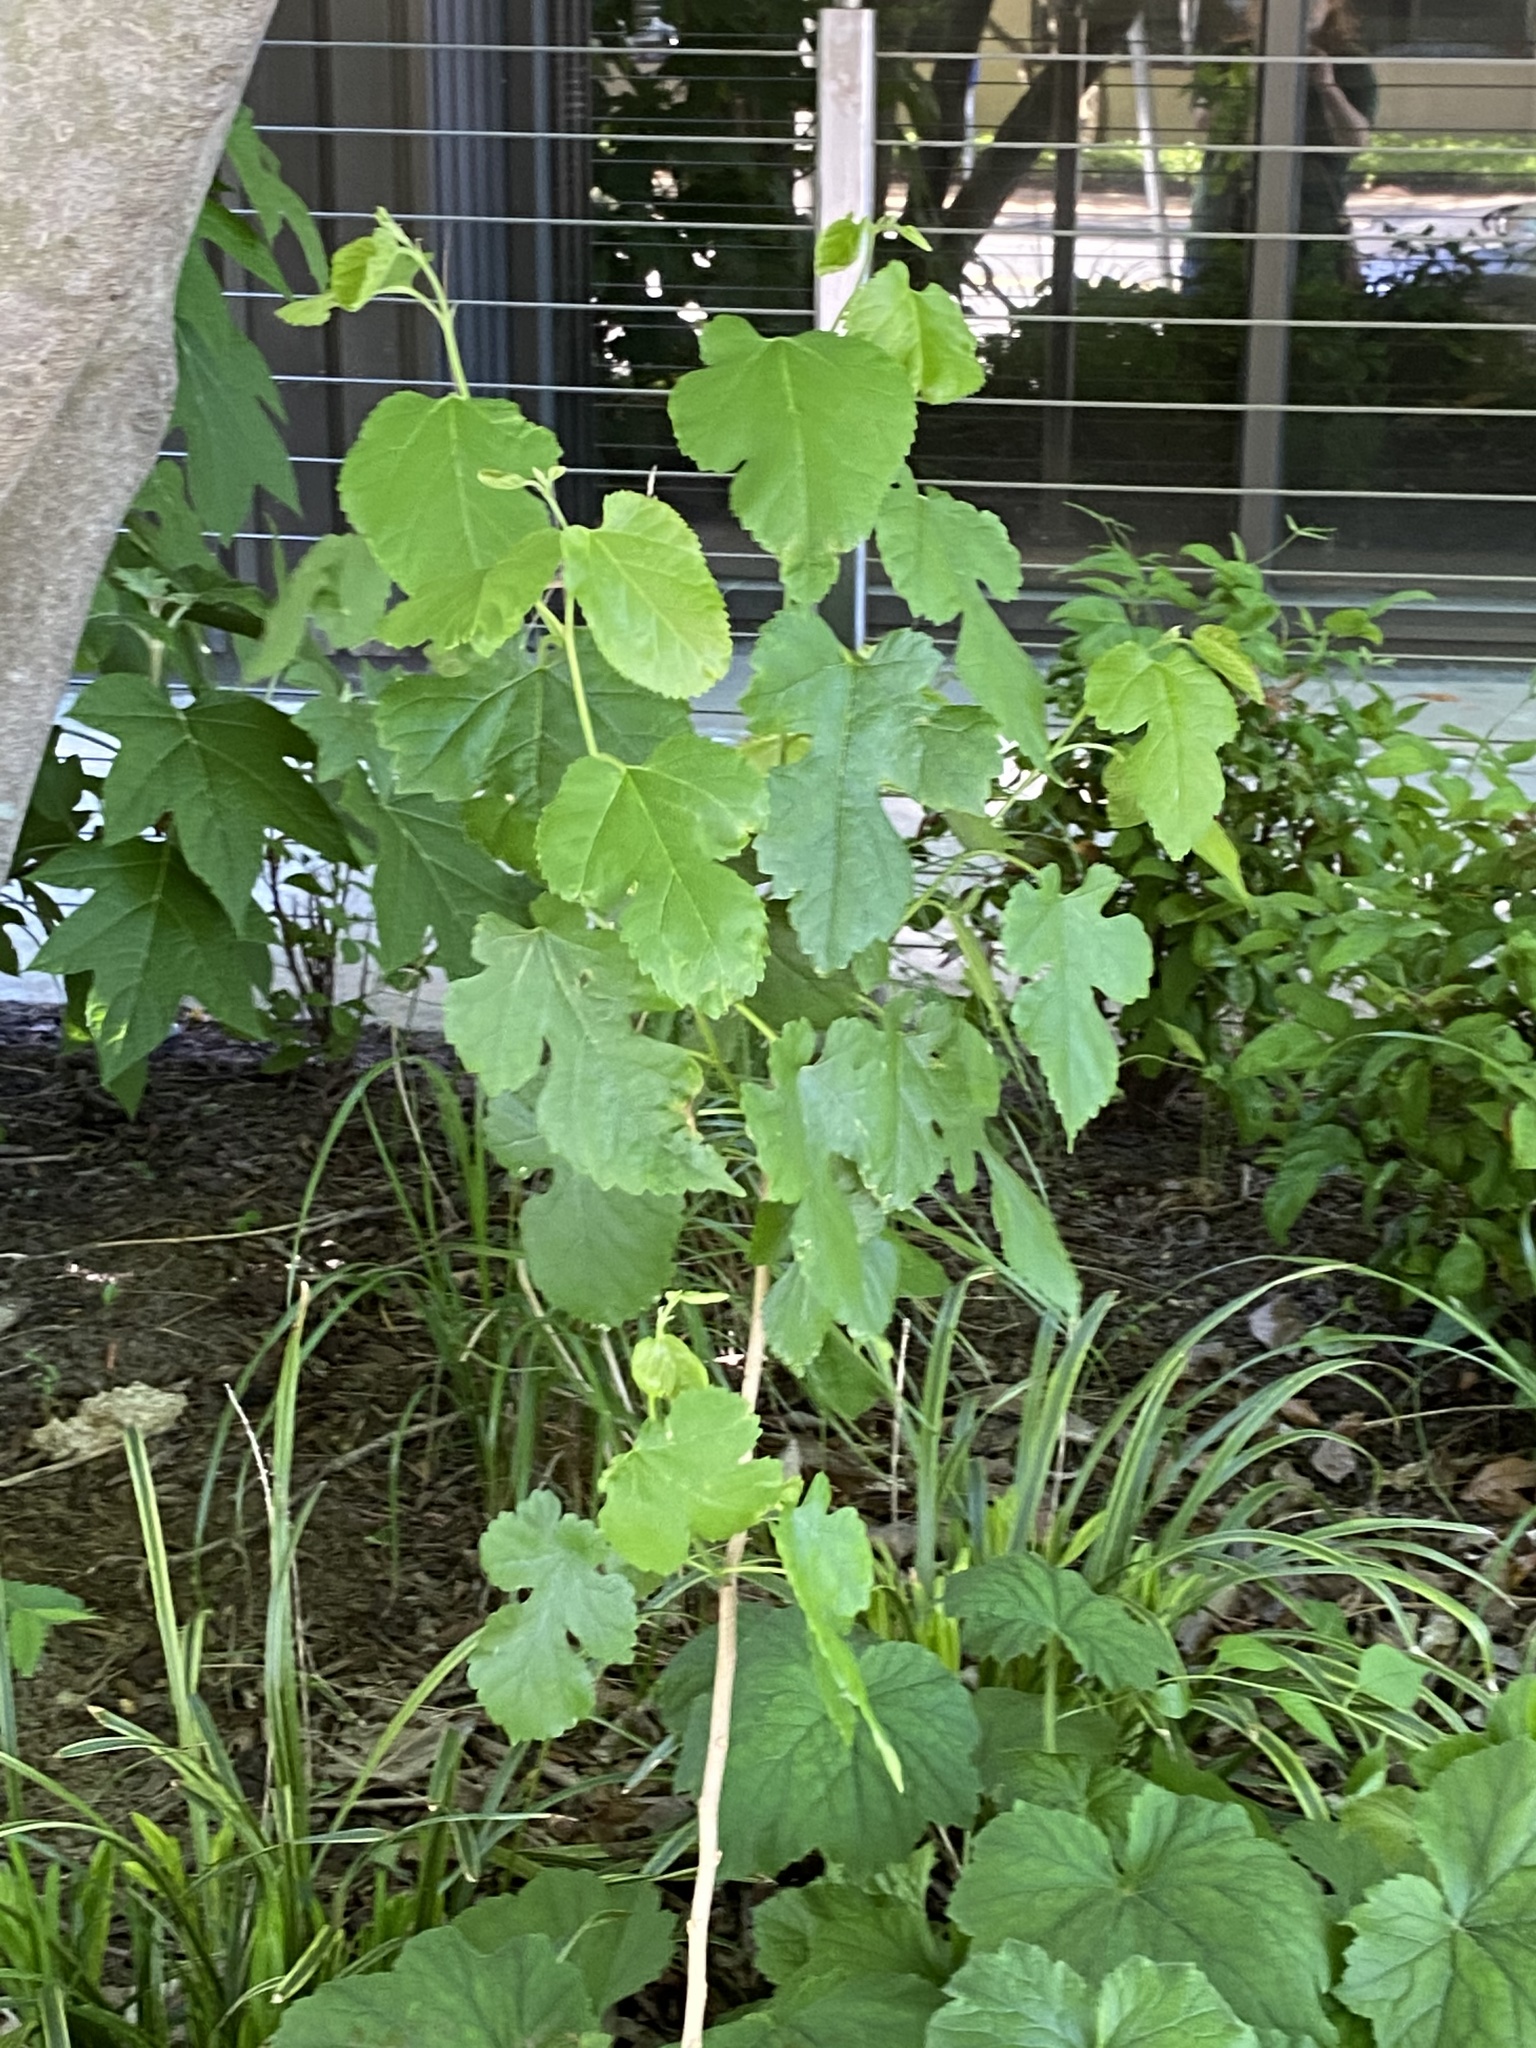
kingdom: Plantae
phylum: Tracheophyta
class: Magnoliopsida
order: Rosales
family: Moraceae
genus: Morus
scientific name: Morus alba
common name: White mulberry
